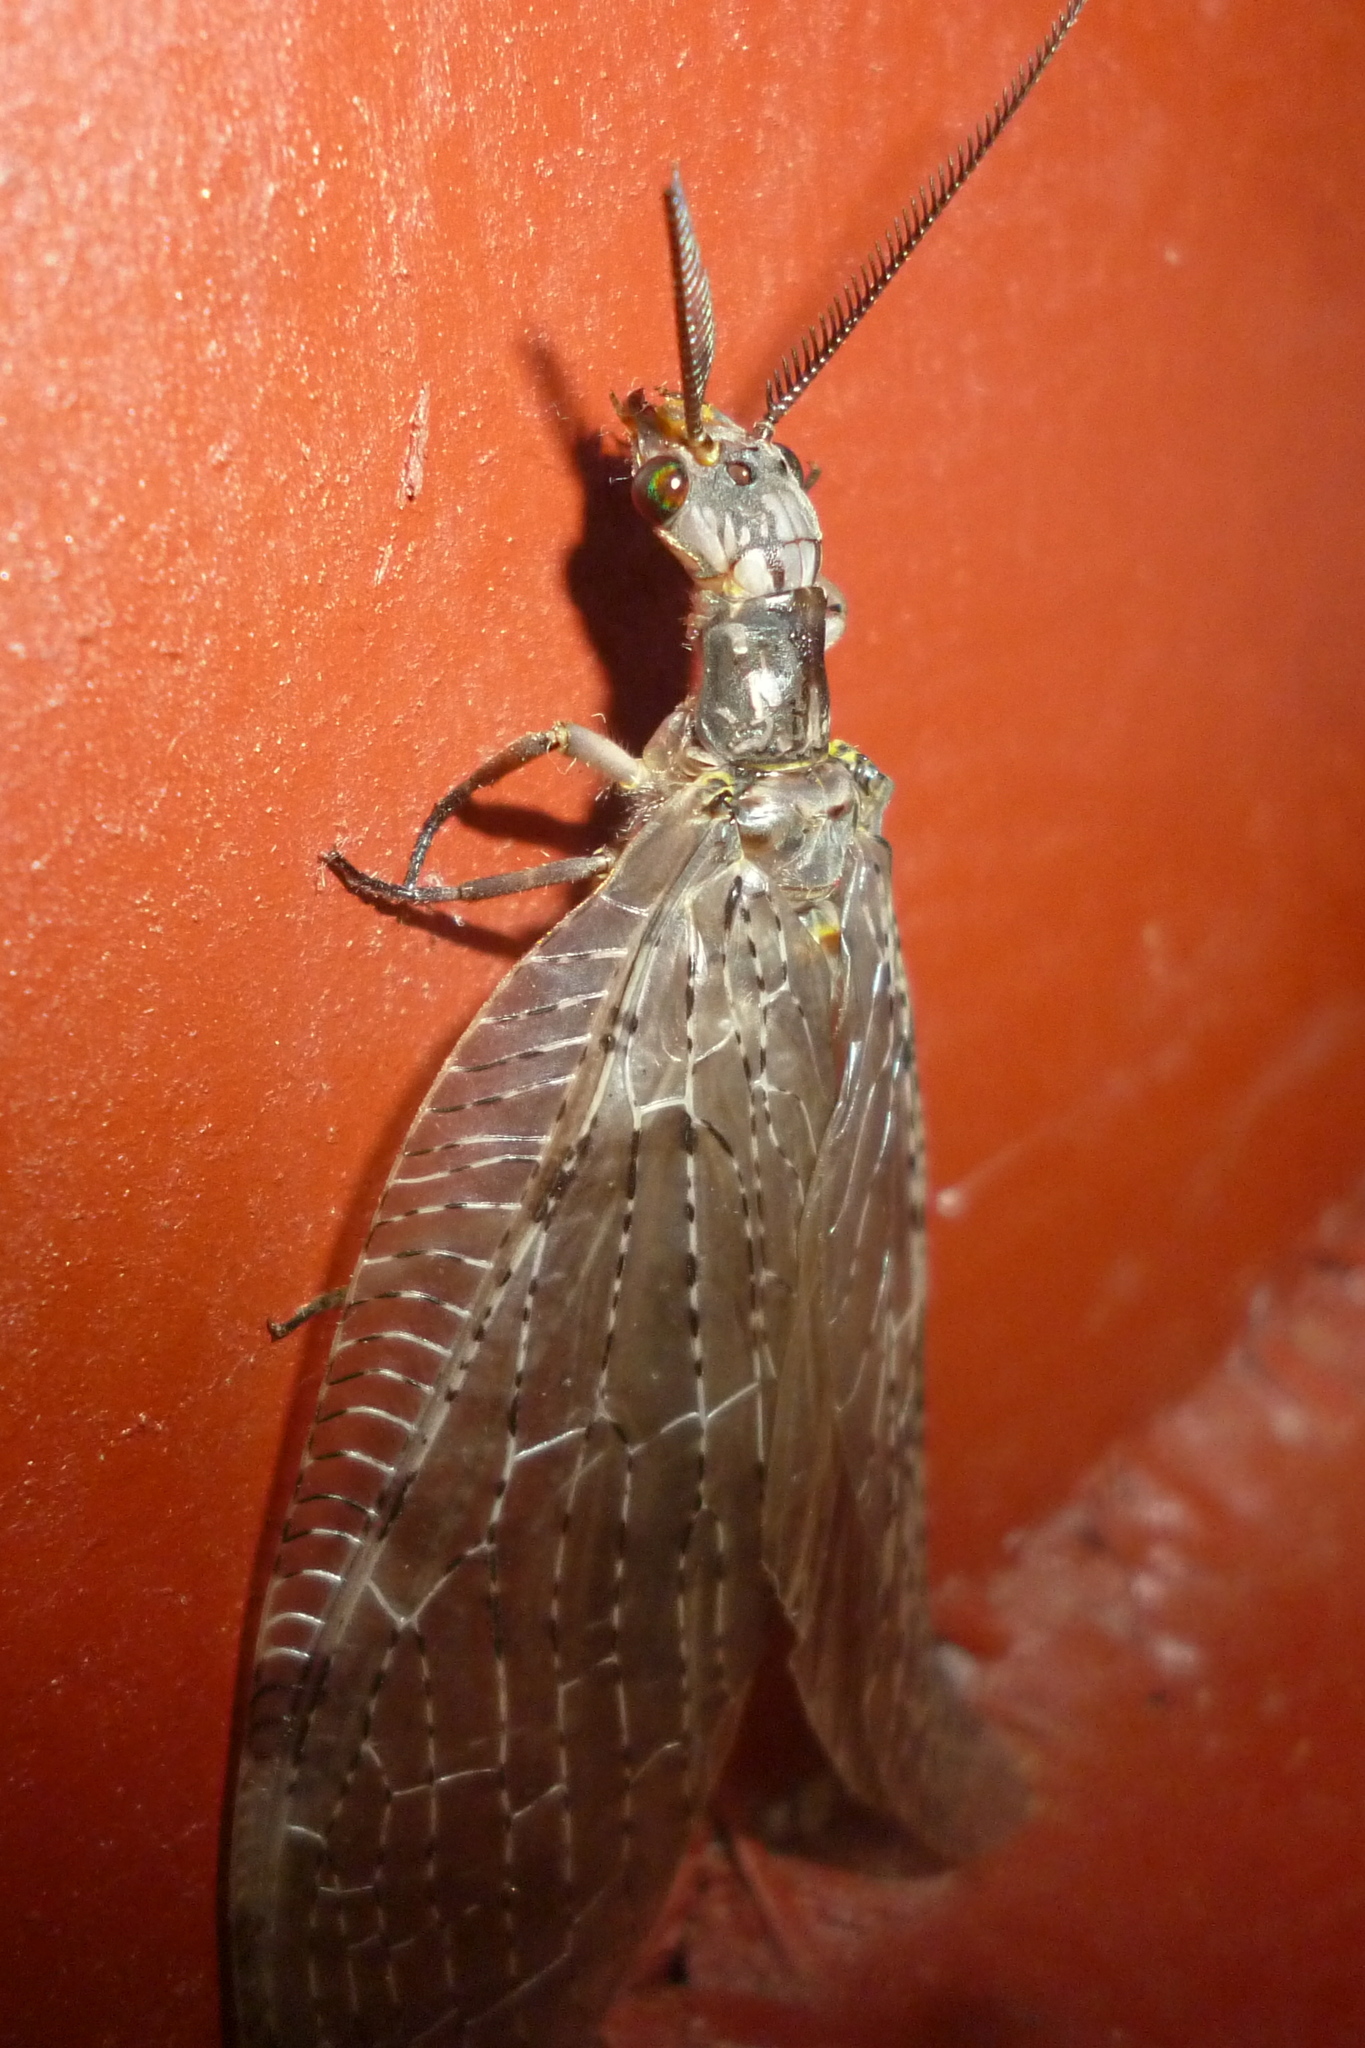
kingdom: Animalia
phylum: Arthropoda
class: Insecta
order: Megaloptera
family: Corydalidae
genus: Chauliodes
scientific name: Chauliodes pectinicornis
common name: Summer fishfly
